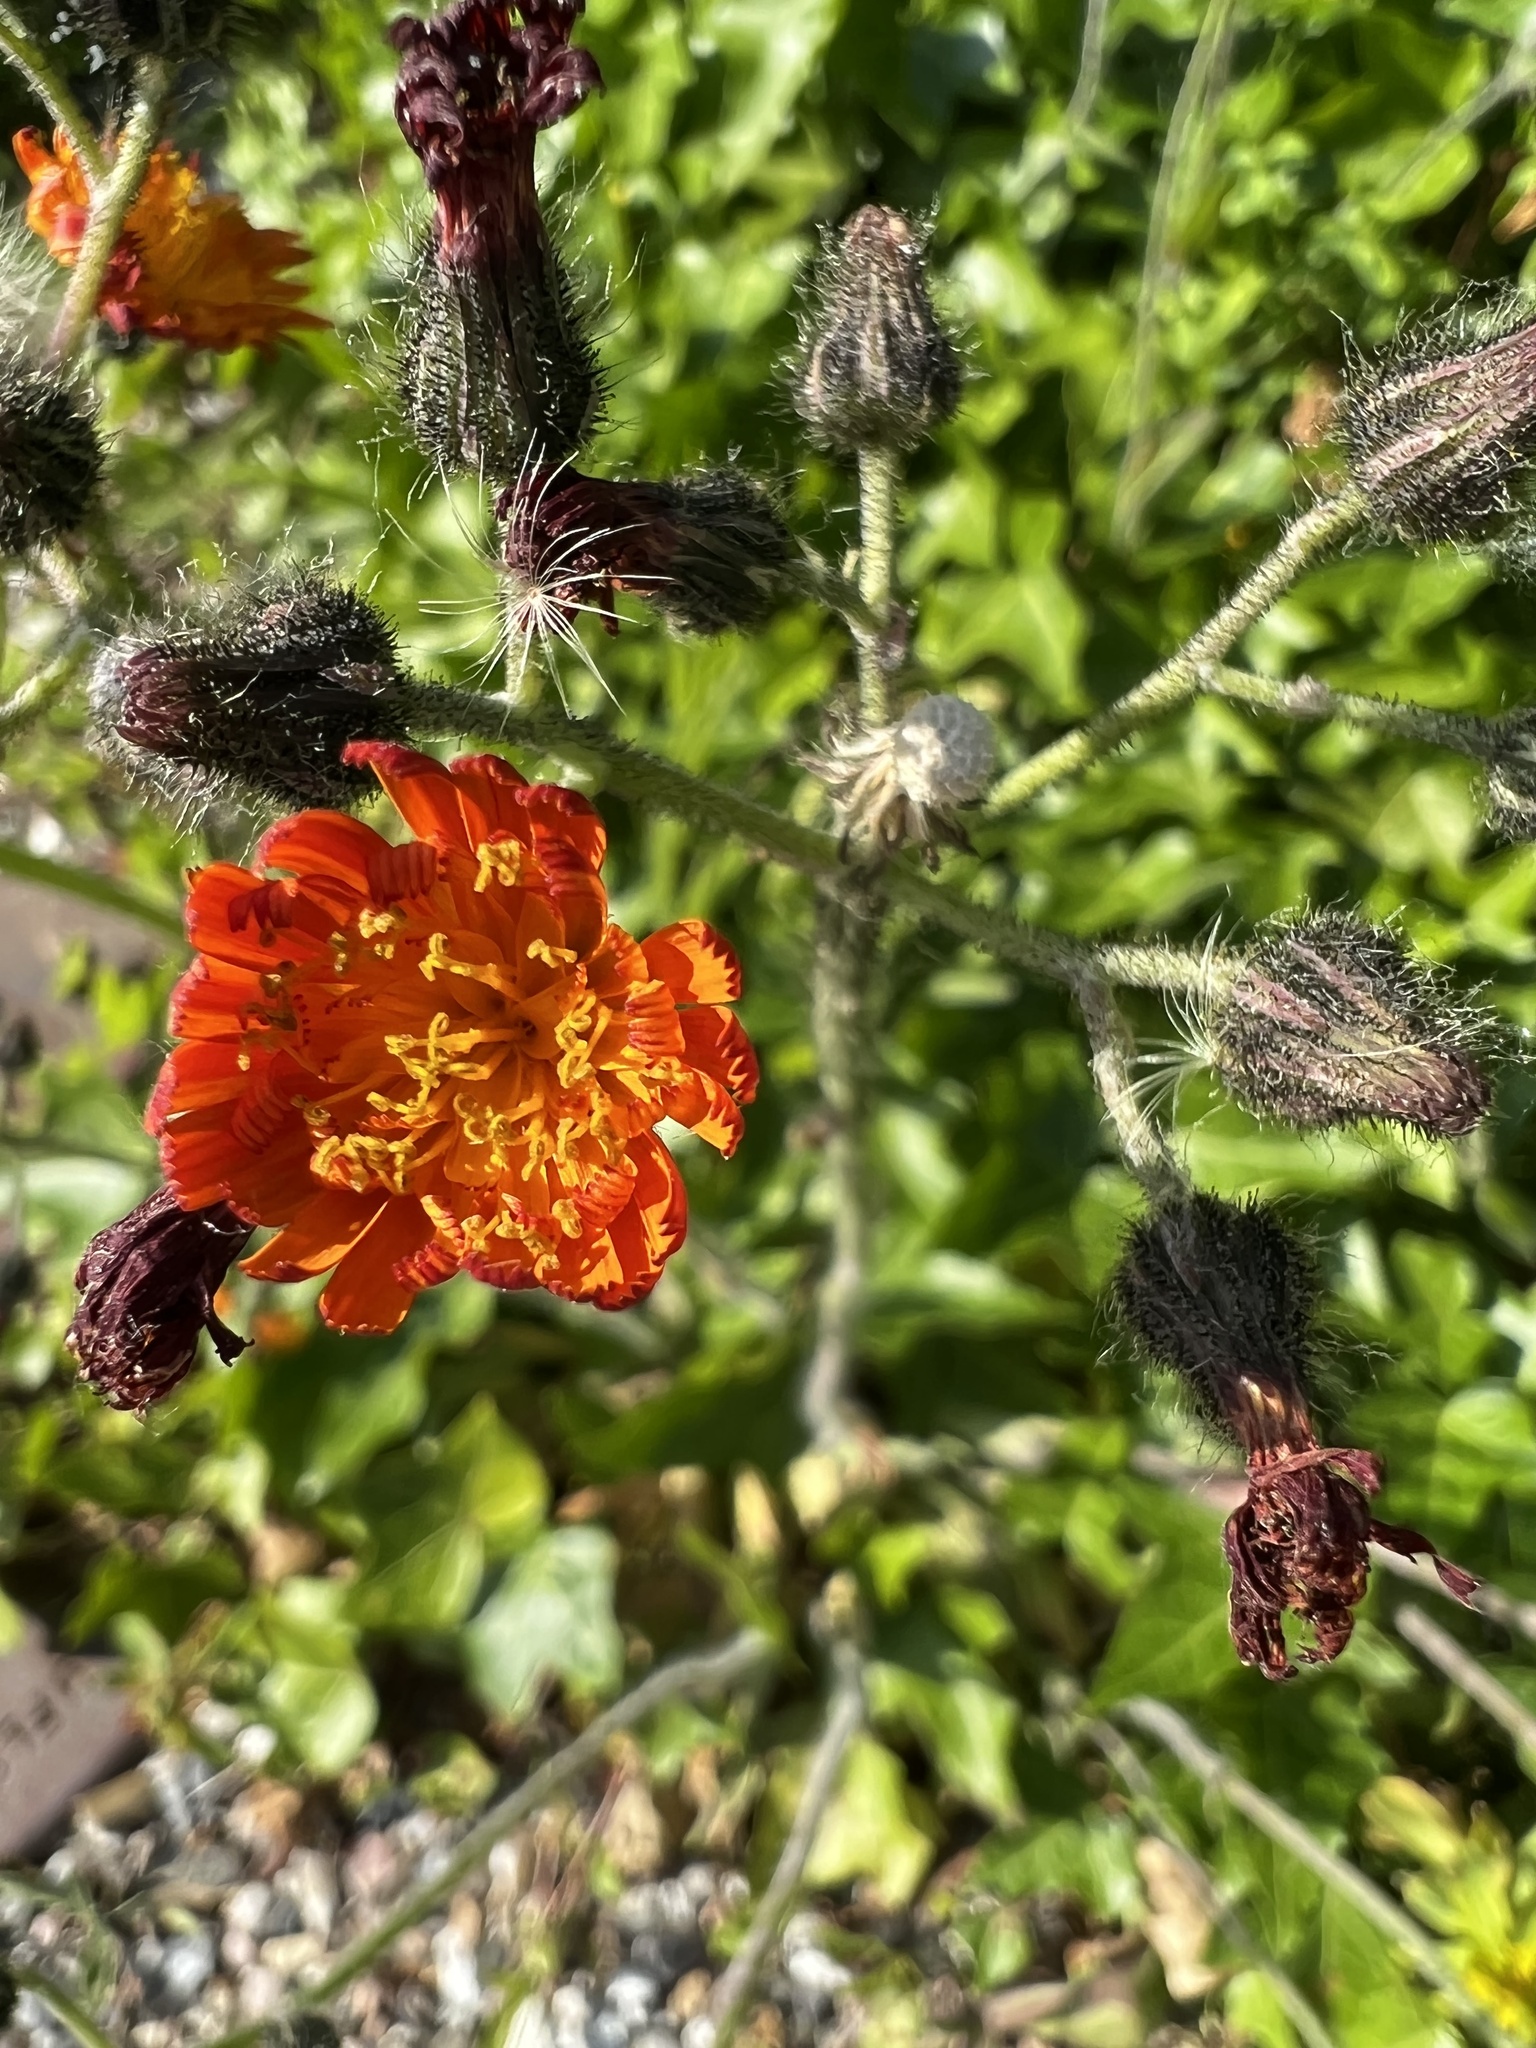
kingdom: Plantae
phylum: Tracheophyta
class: Magnoliopsida
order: Asterales
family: Asteraceae
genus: Pilosella
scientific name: Pilosella aurantiaca
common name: Fox-and-cubs
